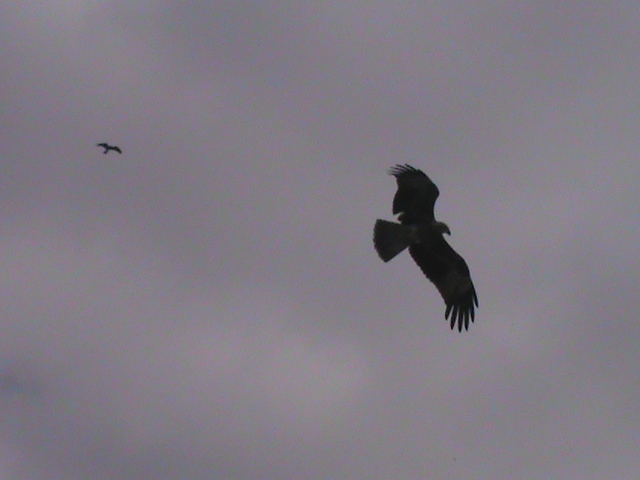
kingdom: Animalia
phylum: Chordata
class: Aves
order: Accipitriformes
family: Accipitridae
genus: Haliastur
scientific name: Haliastur indus
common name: Brahminy kite
